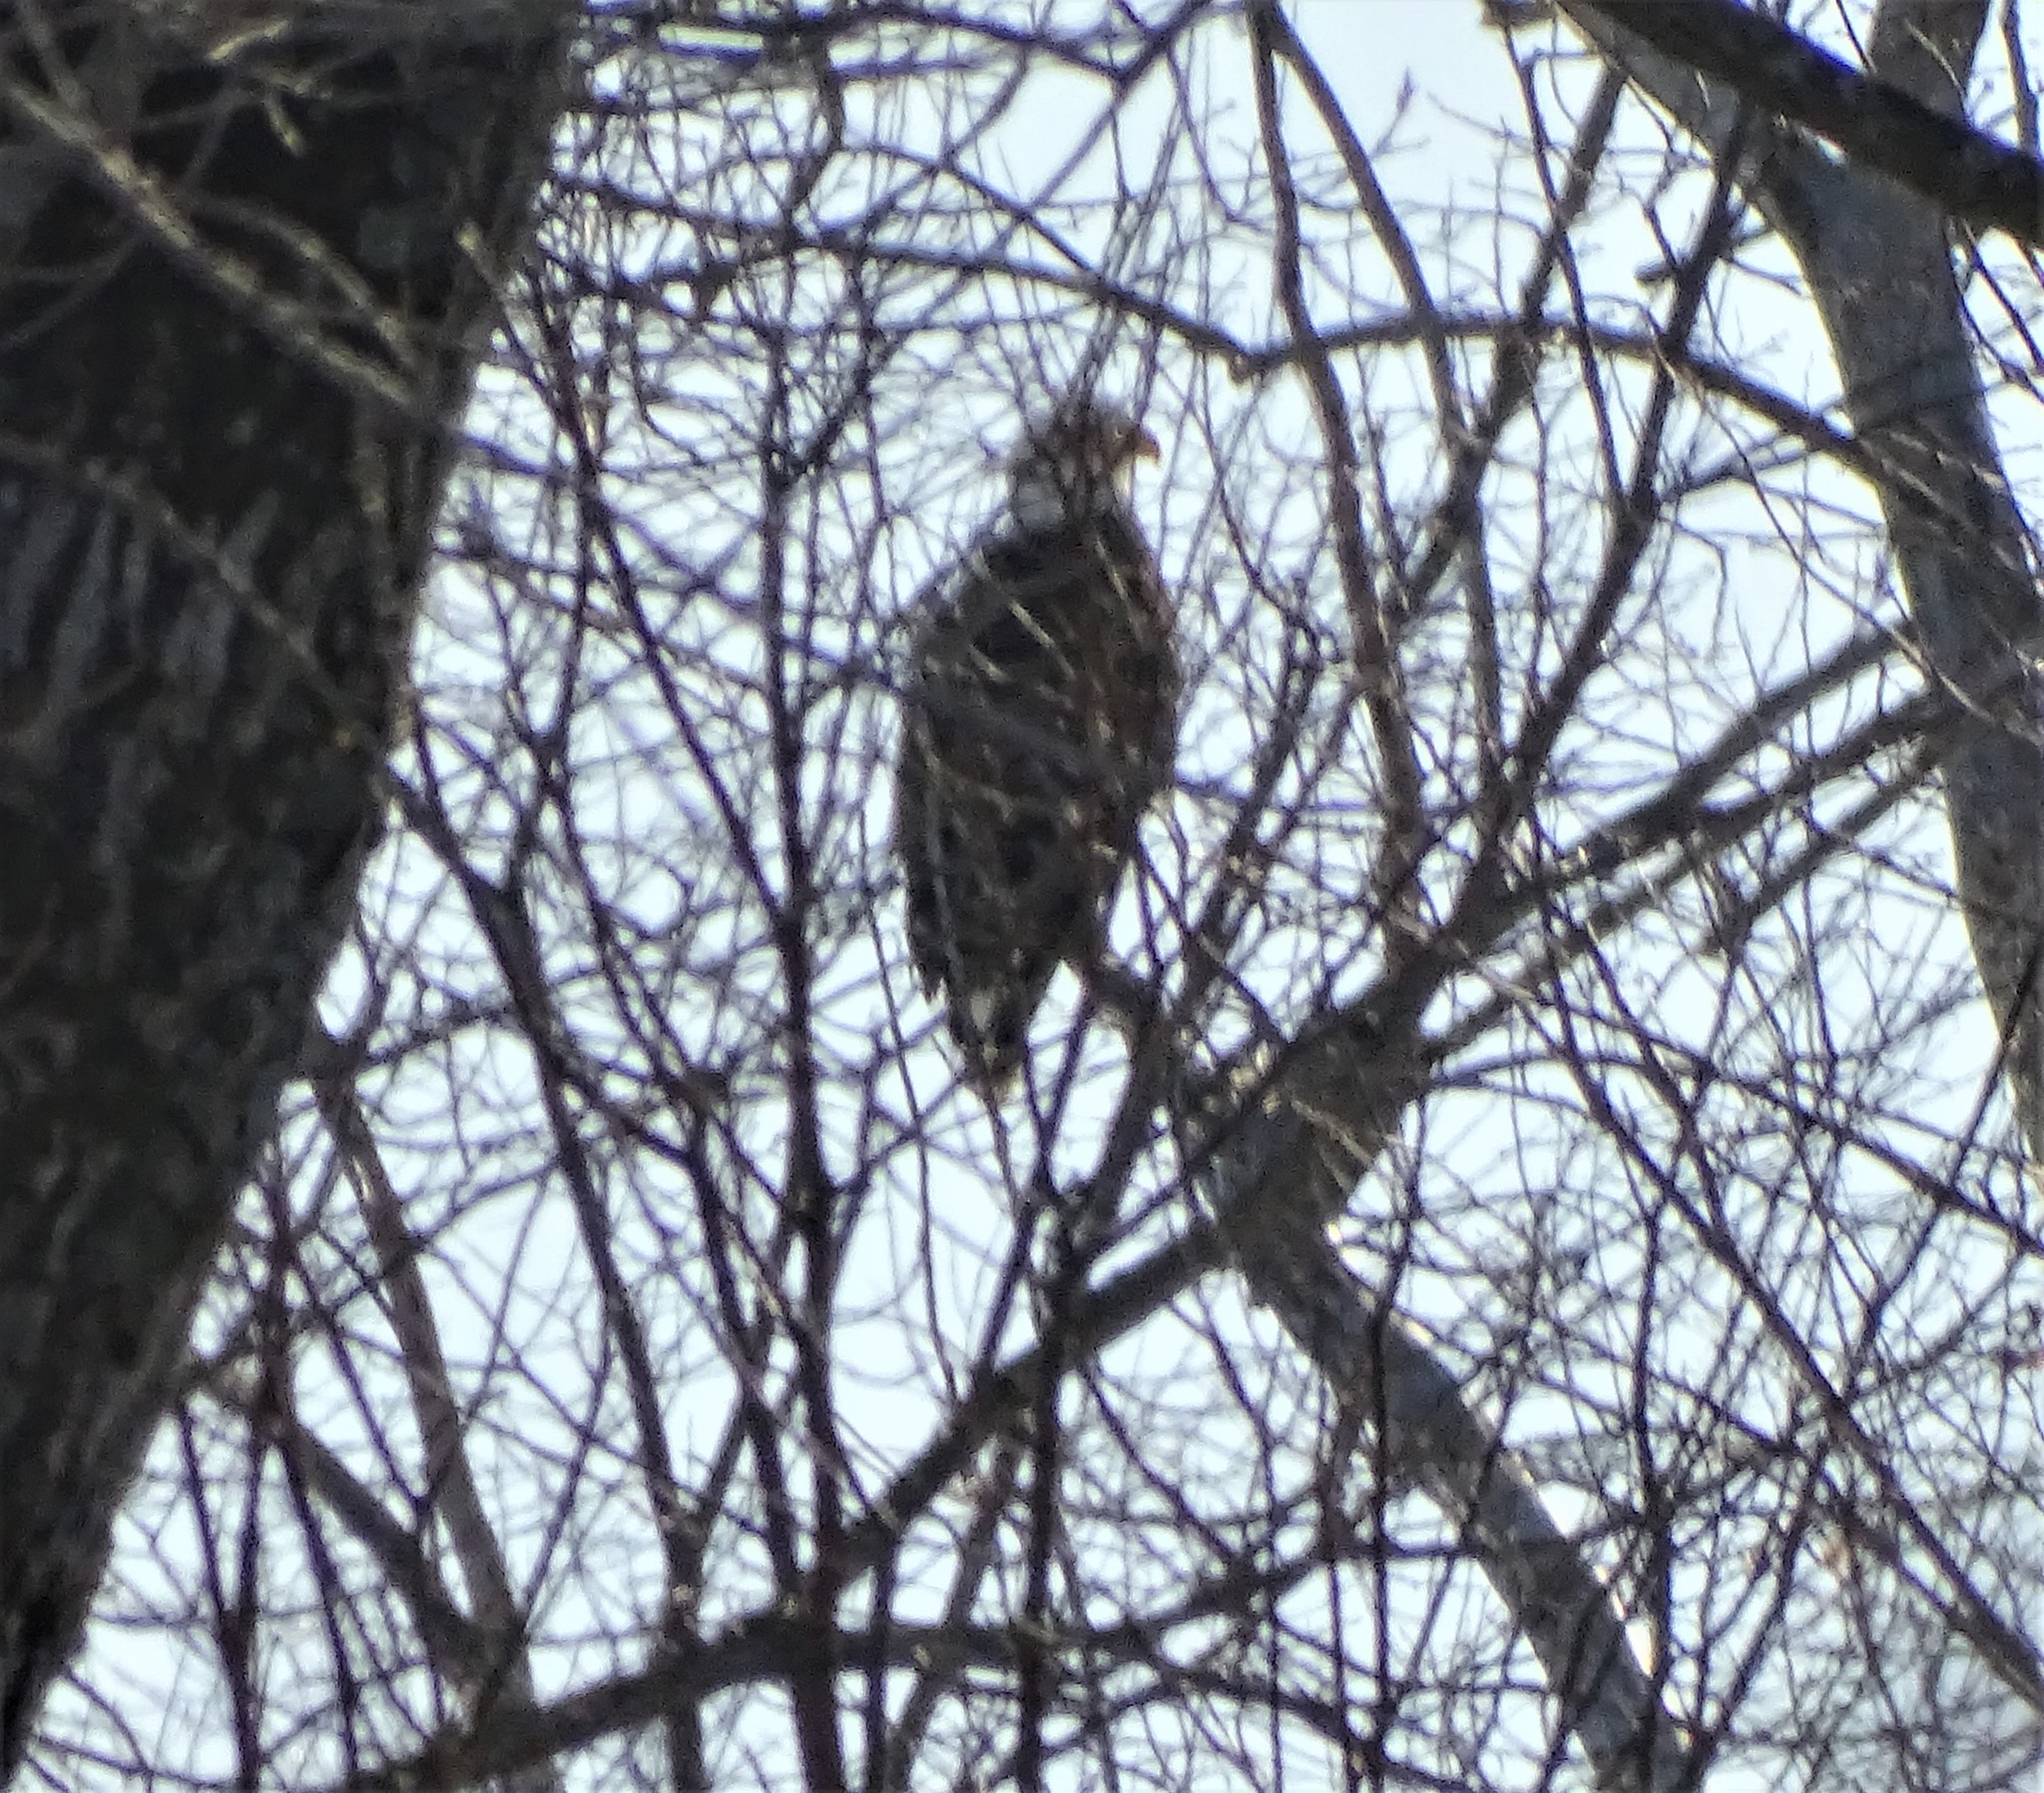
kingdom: Animalia
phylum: Chordata
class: Aves
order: Accipitriformes
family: Accipitridae
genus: Haliaeetus
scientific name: Haliaeetus leucocephalus
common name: Bald eagle
